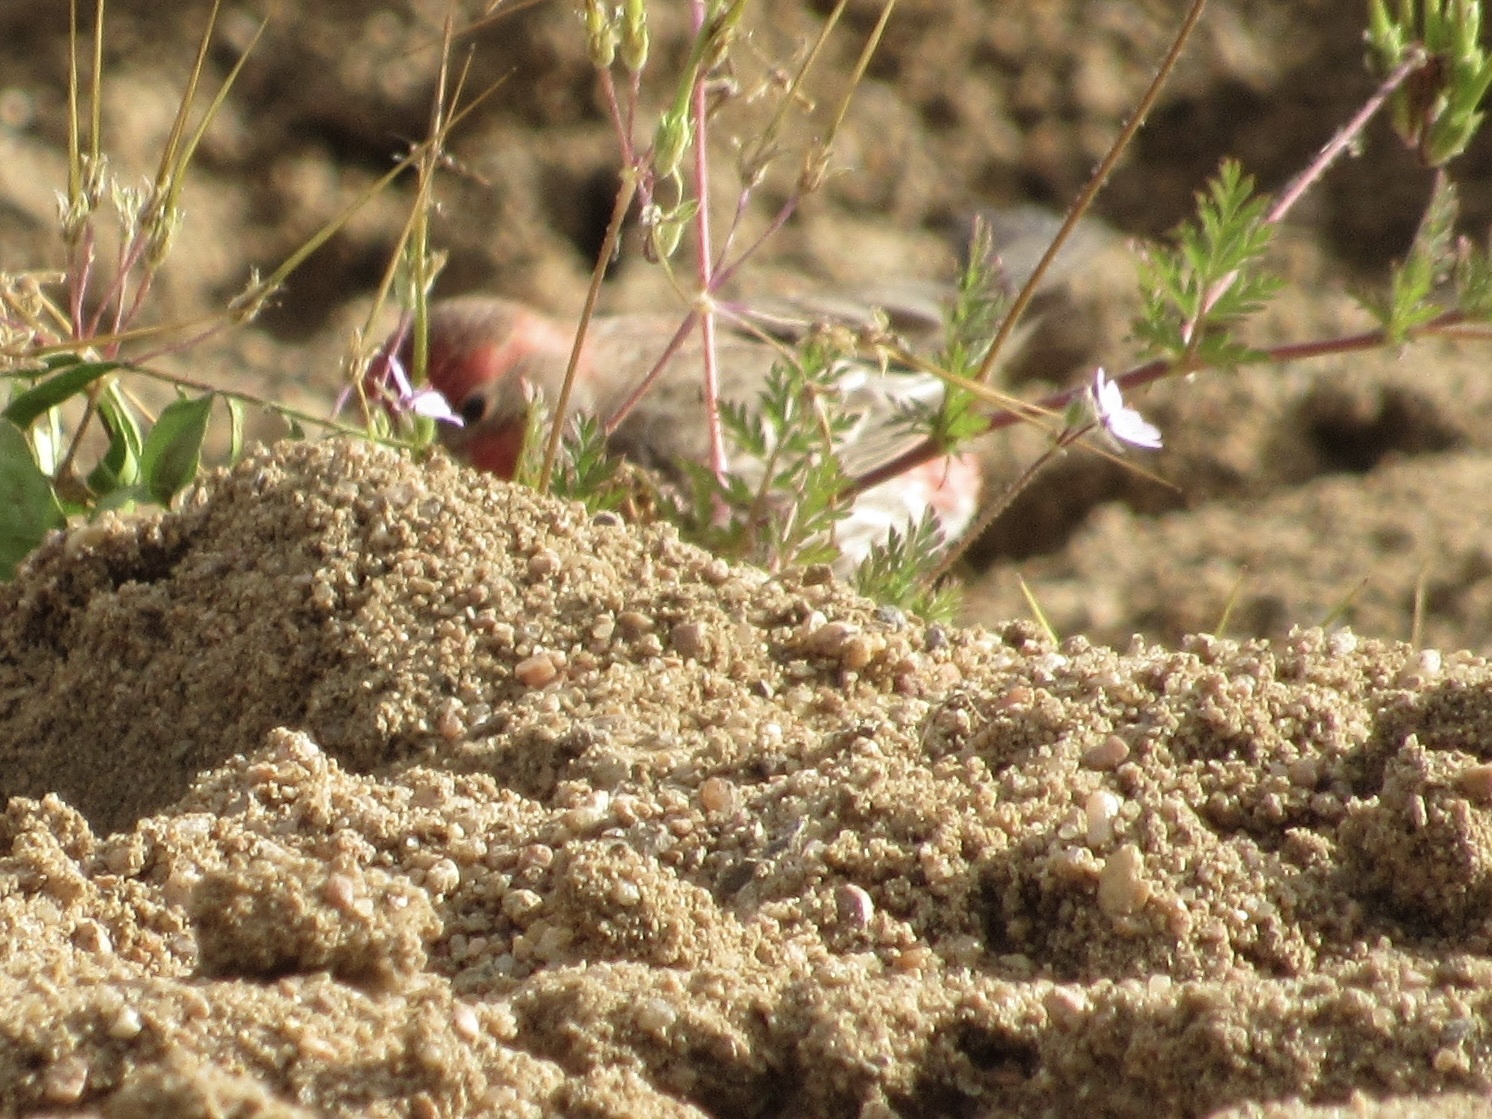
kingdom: Animalia
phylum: Chordata
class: Aves
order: Passeriformes
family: Fringillidae
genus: Haemorhous
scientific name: Haemorhous mexicanus
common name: House finch
